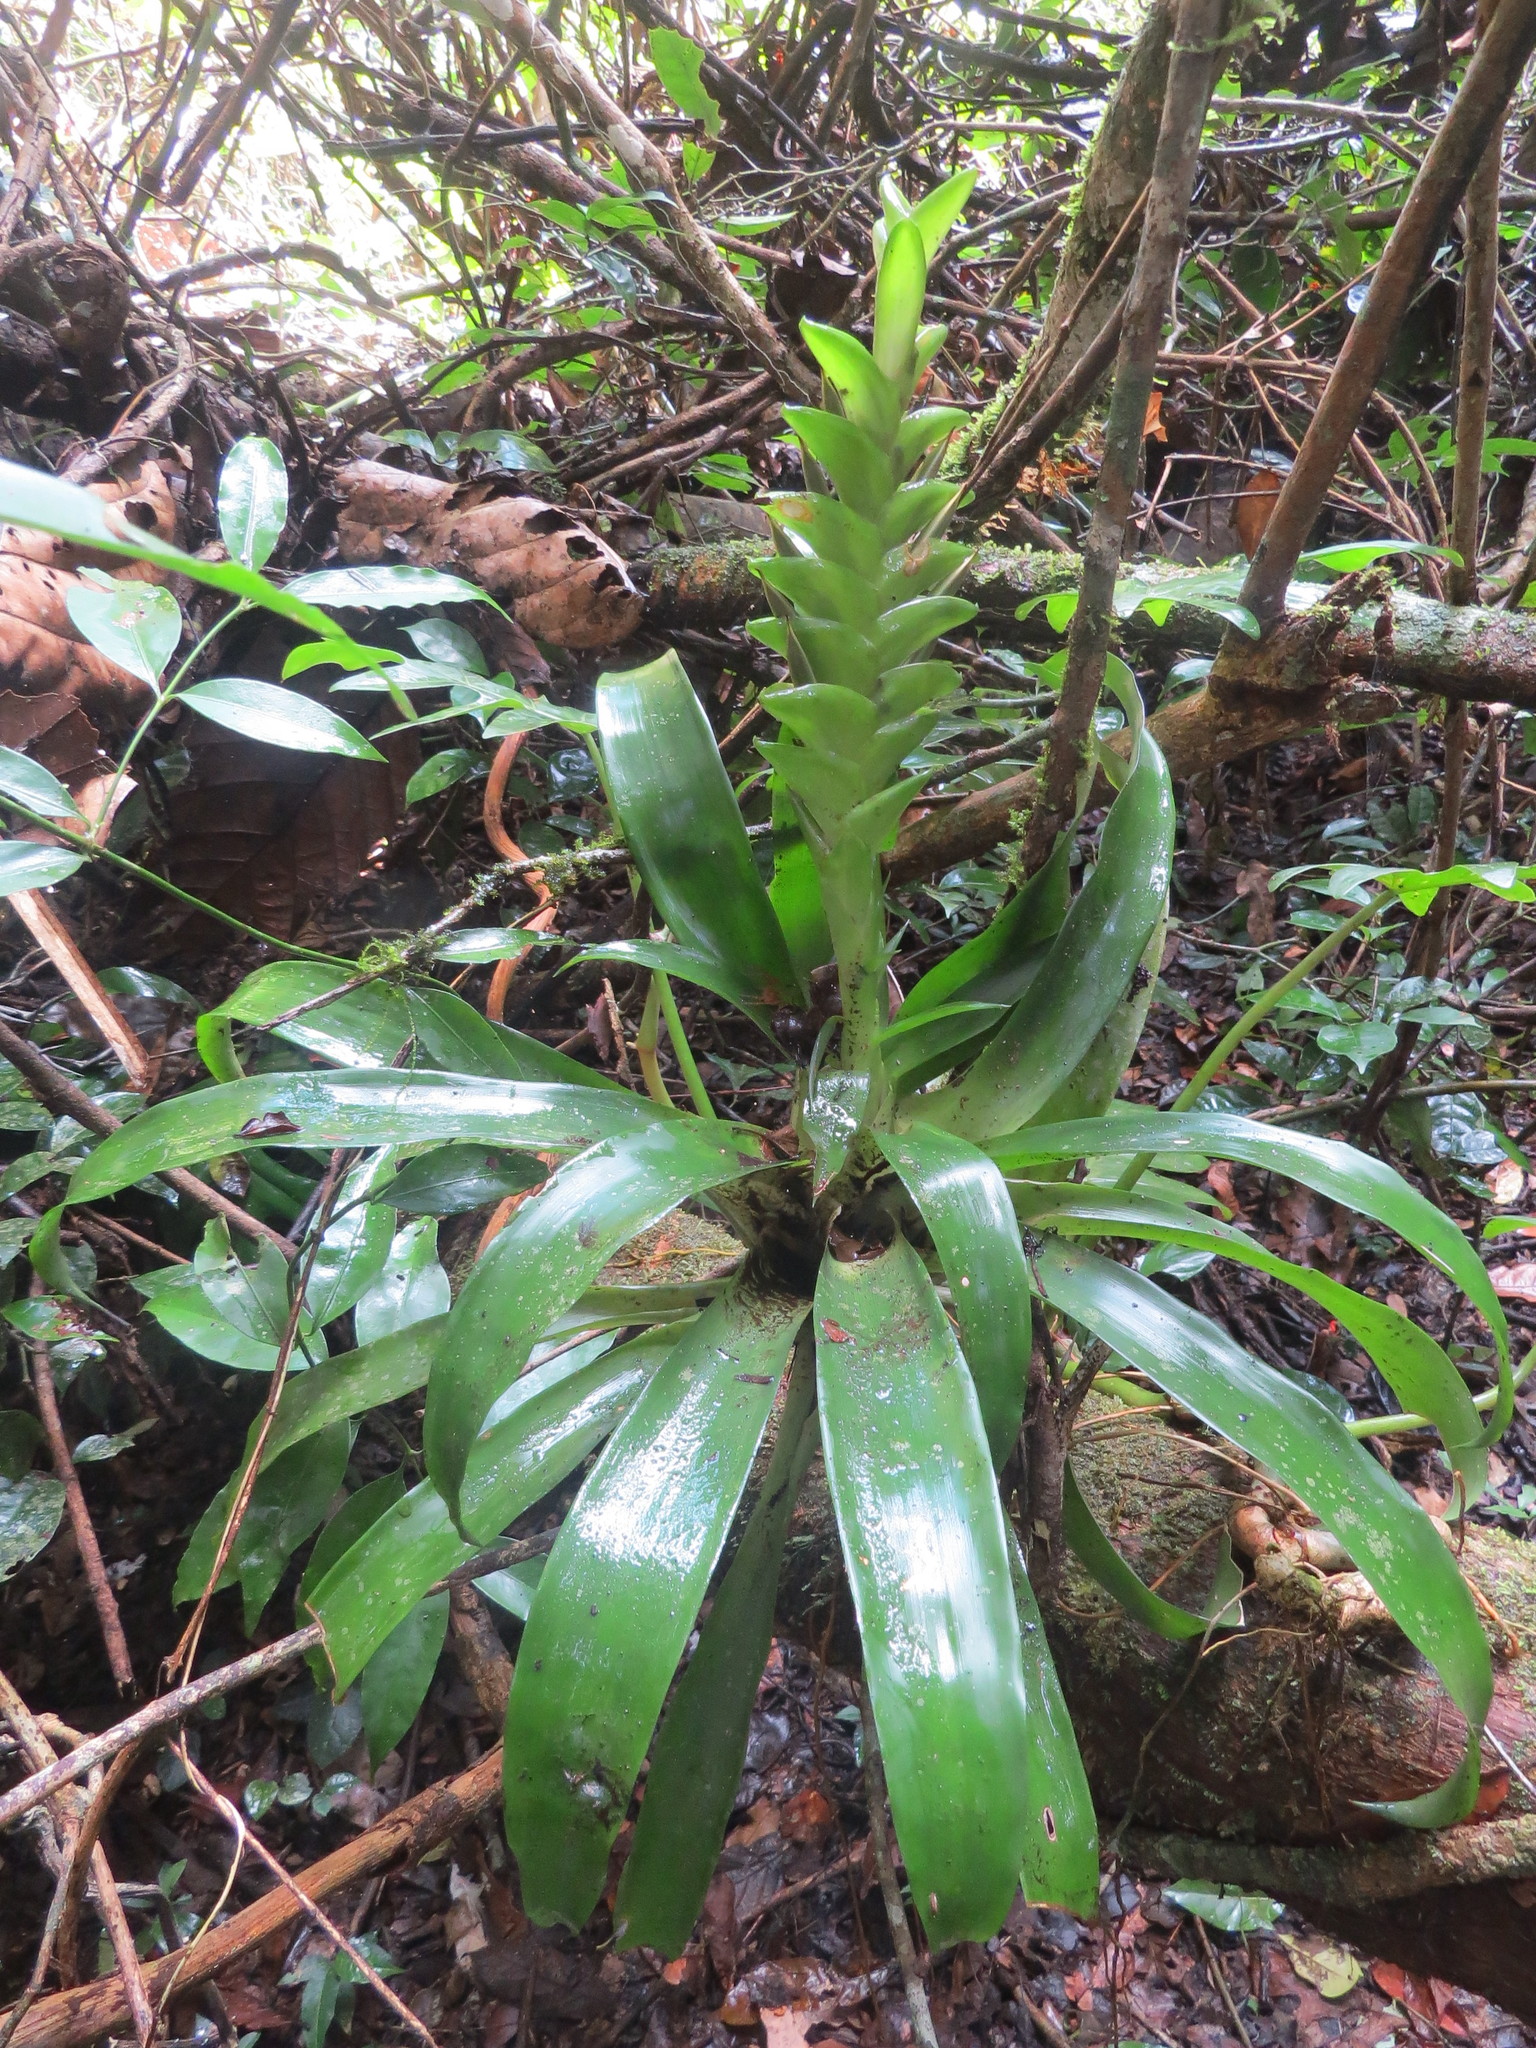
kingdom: Plantae
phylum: Tracheophyta
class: Liliopsida
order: Poales
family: Bromeliaceae
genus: Tillandsia
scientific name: Tillandsia heliconioides
